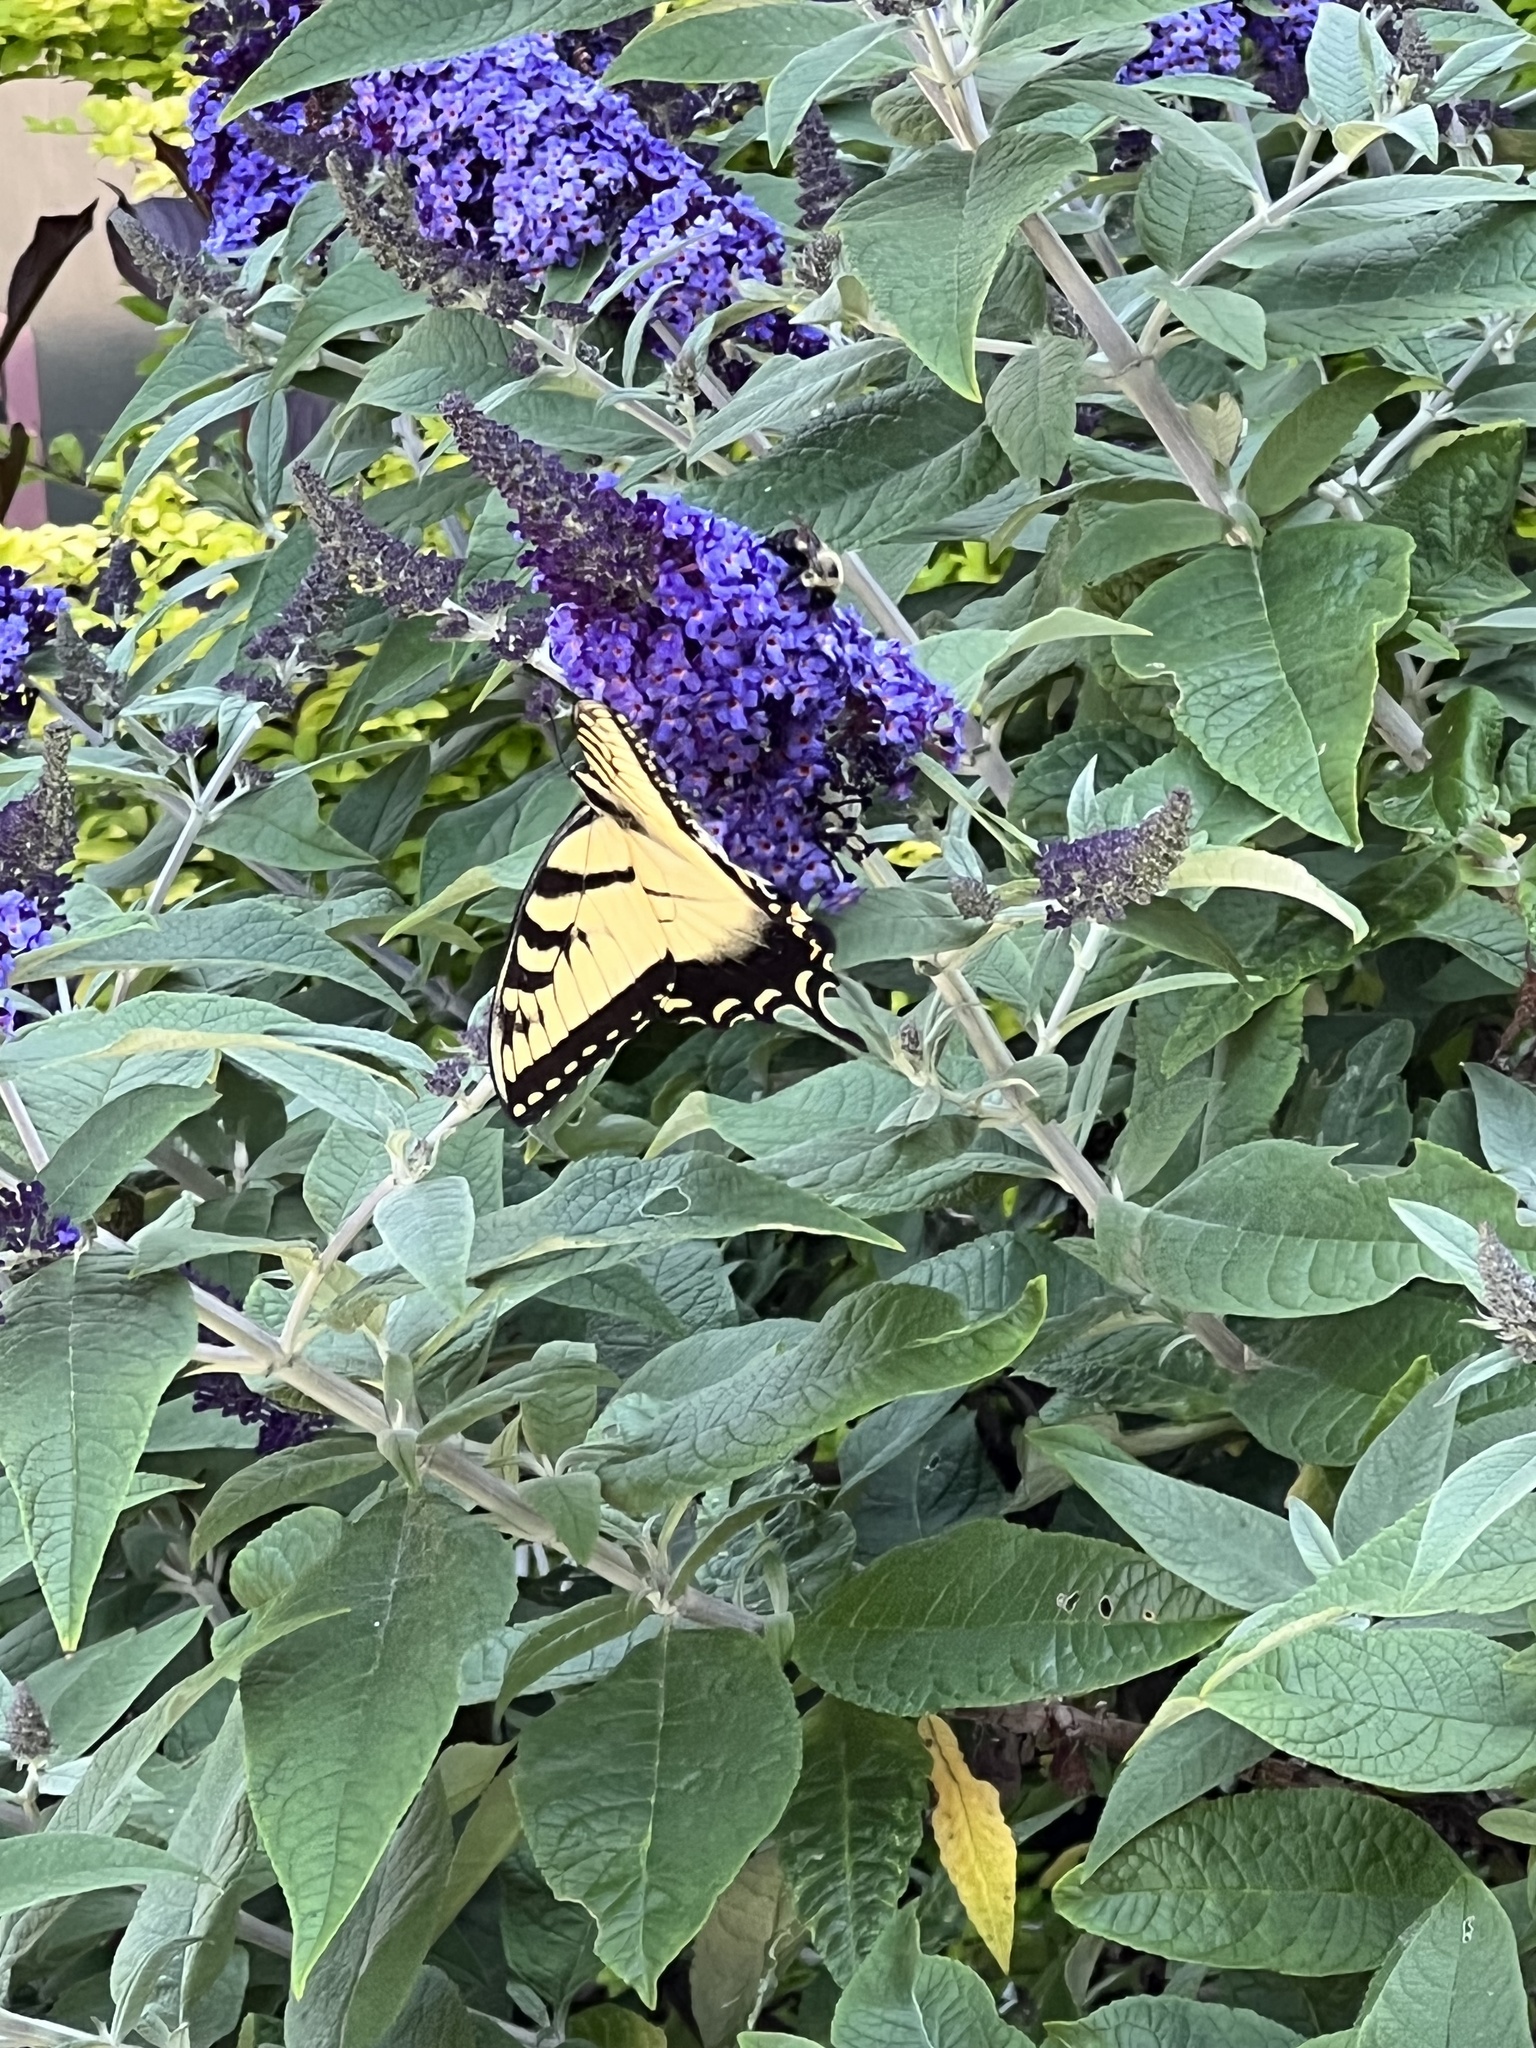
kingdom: Animalia
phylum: Arthropoda
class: Insecta
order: Lepidoptera
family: Papilionidae
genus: Papilio
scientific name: Papilio glaucus
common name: Tiger swallowtail
